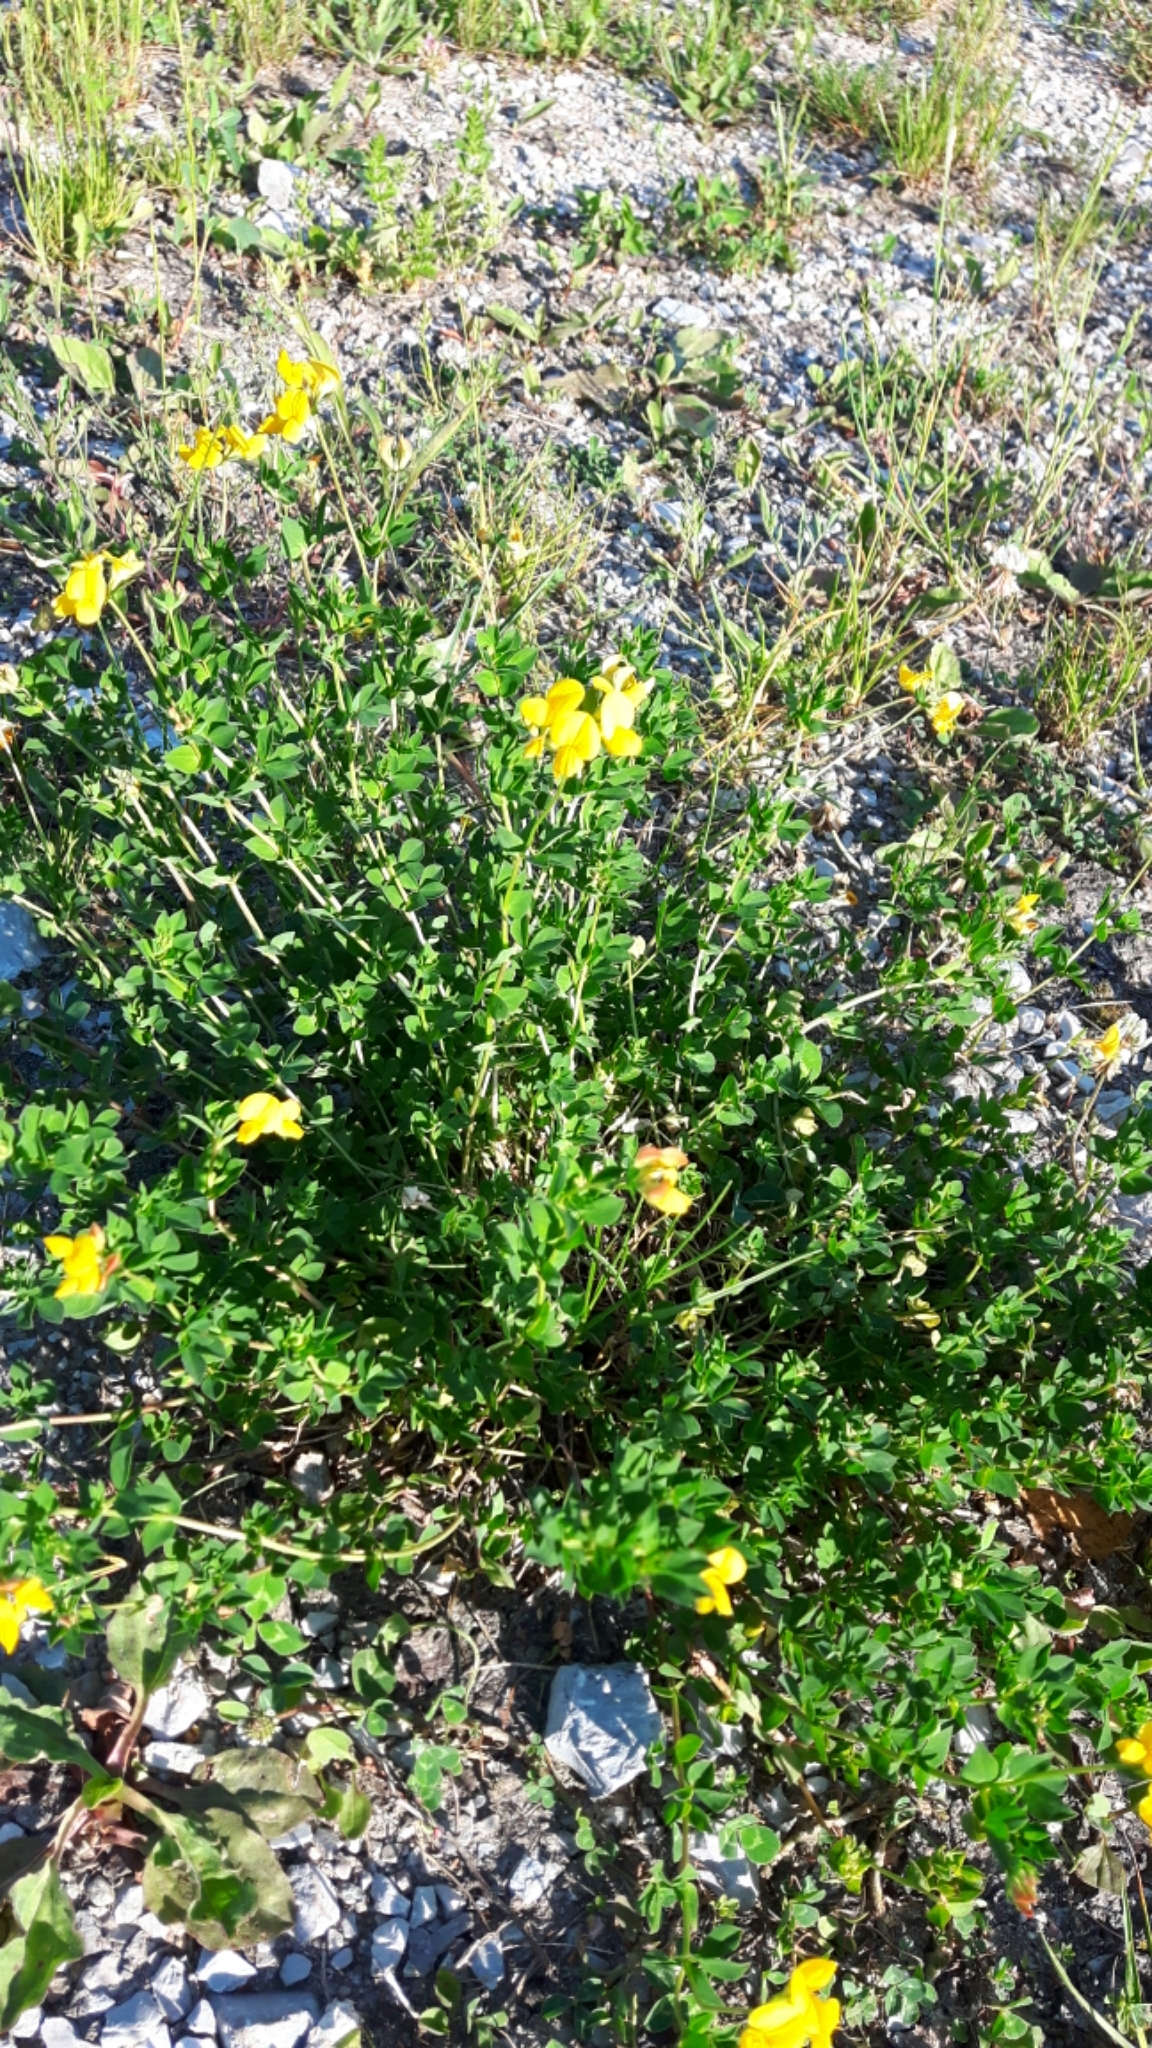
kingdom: Plantae
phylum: Tracheophyta
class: Magnoliopsida
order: Fabales
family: Fabaceae
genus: Lotus
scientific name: Lotus corniculatus
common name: Common bird's-foot-trefoil
